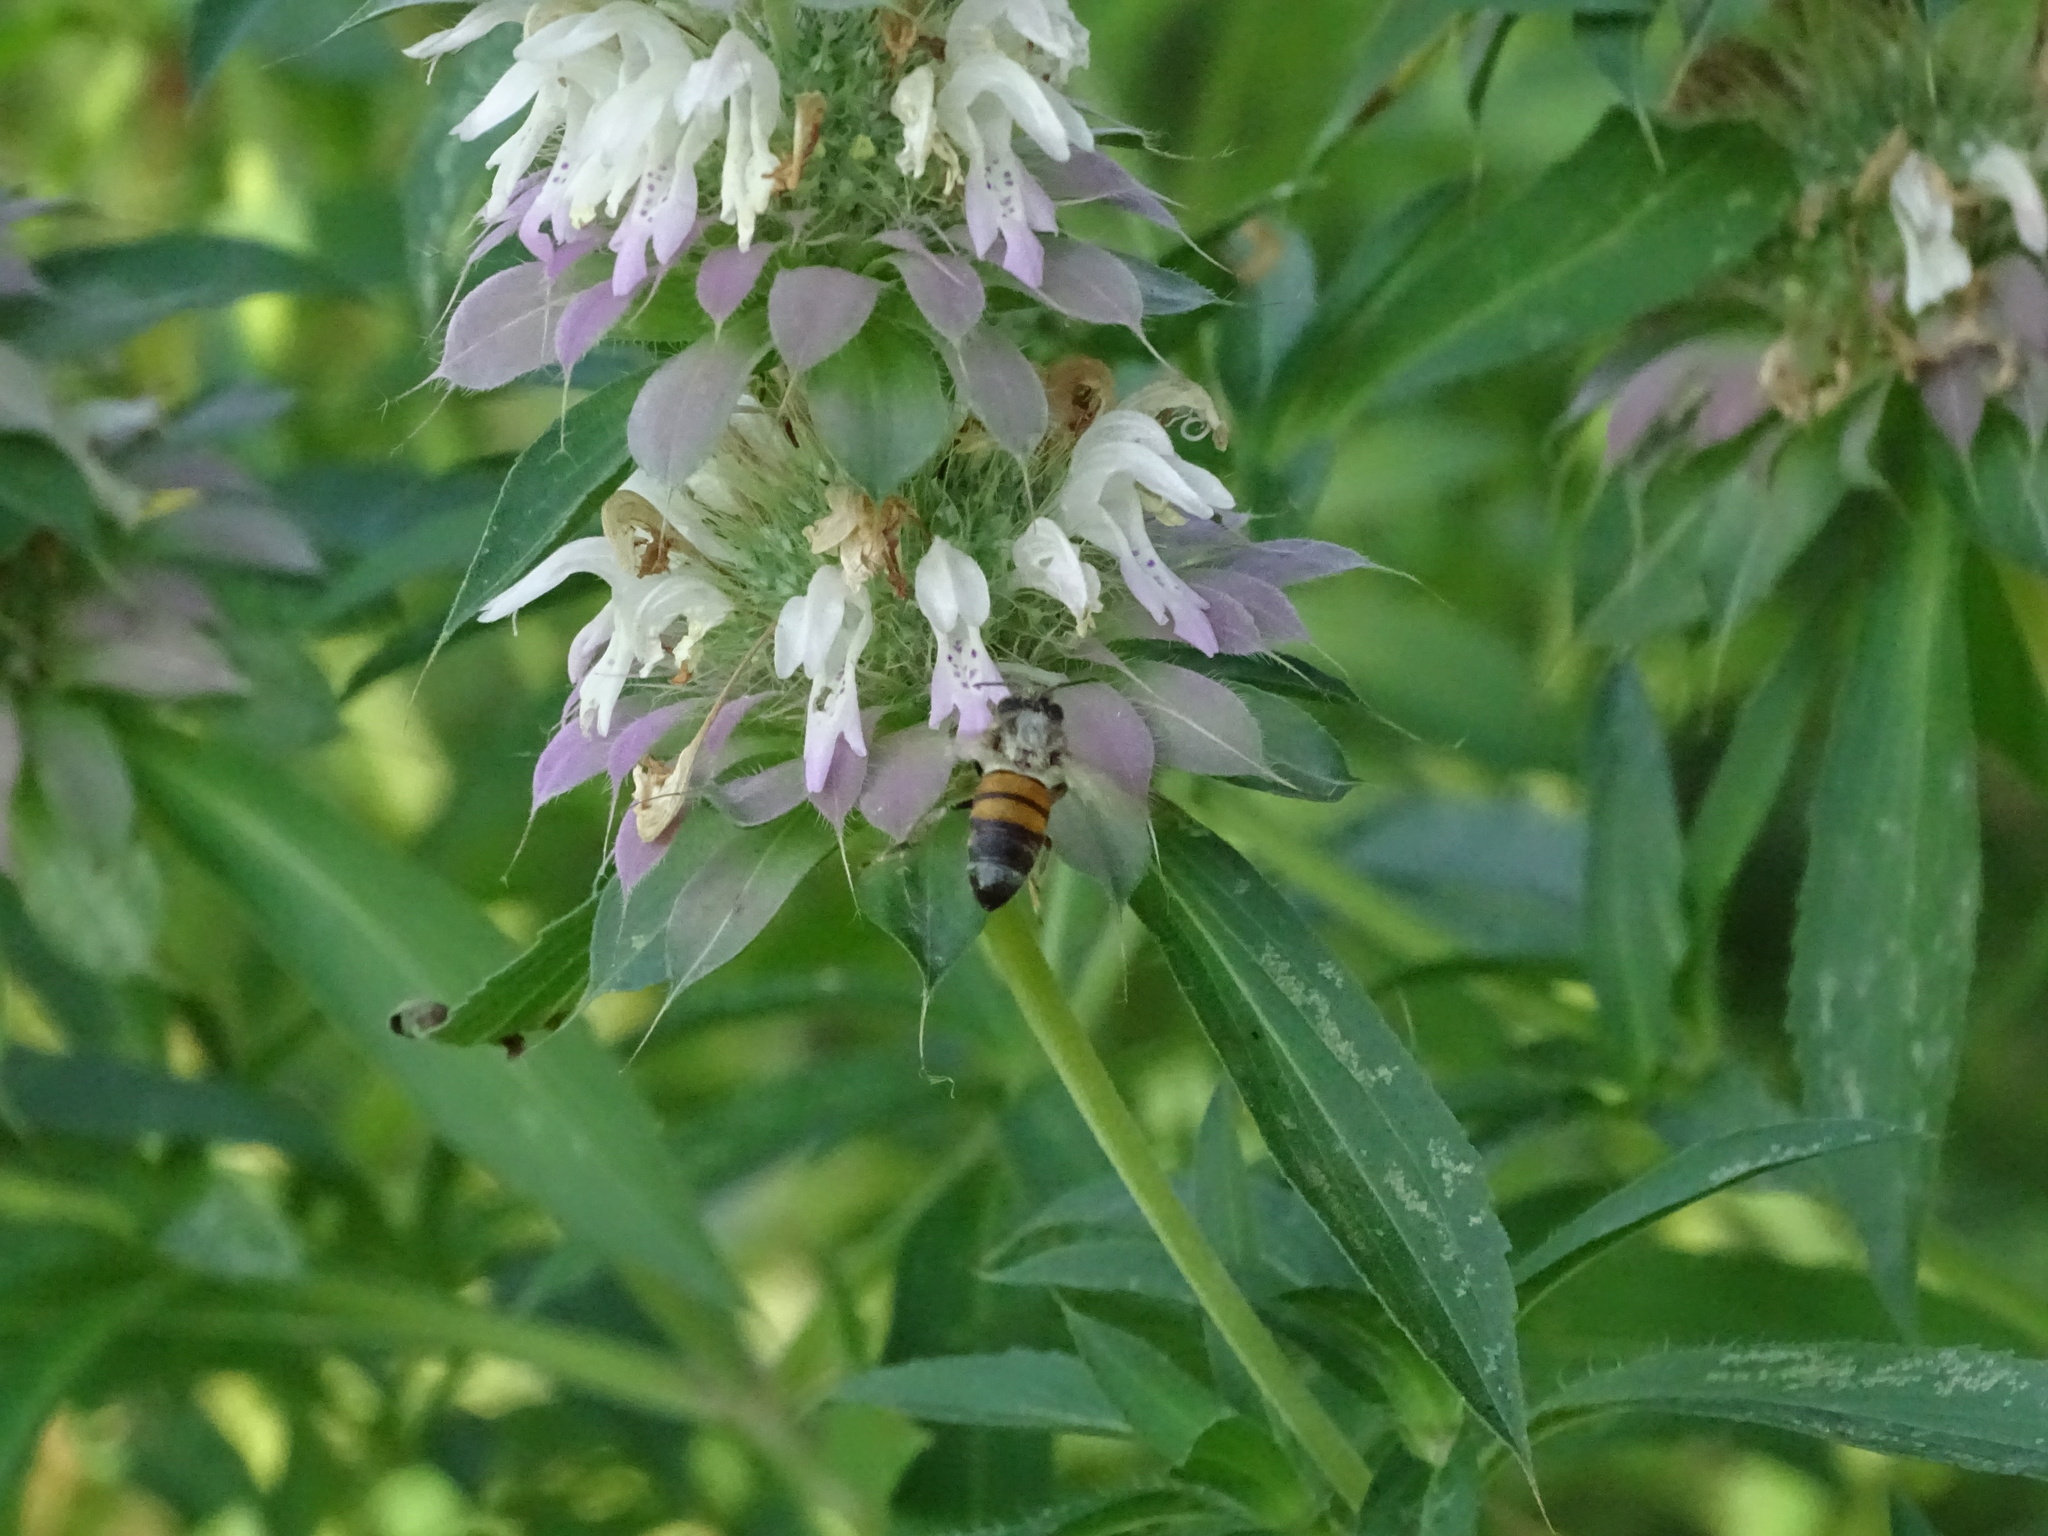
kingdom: Animalia
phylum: Arthropoda
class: Insecta
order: Hymenoptera
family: Apidae
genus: Apis
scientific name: Apis mellifera
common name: Honey bee
